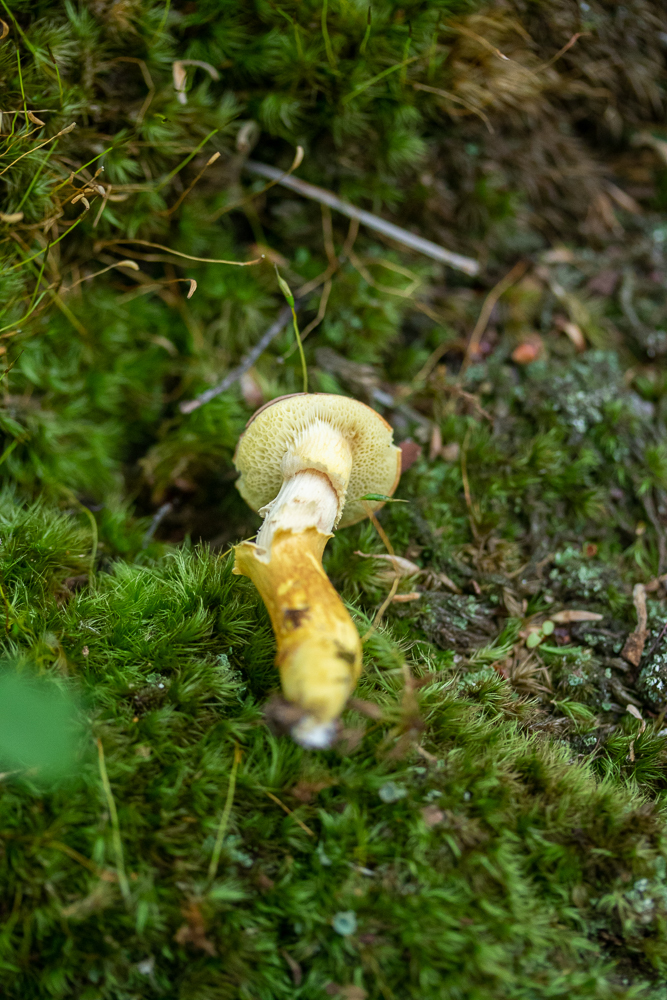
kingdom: Fungi
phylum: Basidiomycota
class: Agaricomycetes
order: Boletales
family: Boletaceae
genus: Aureoboletus
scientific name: Aureoboletus auriporus
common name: Sour gold-pored bolete
